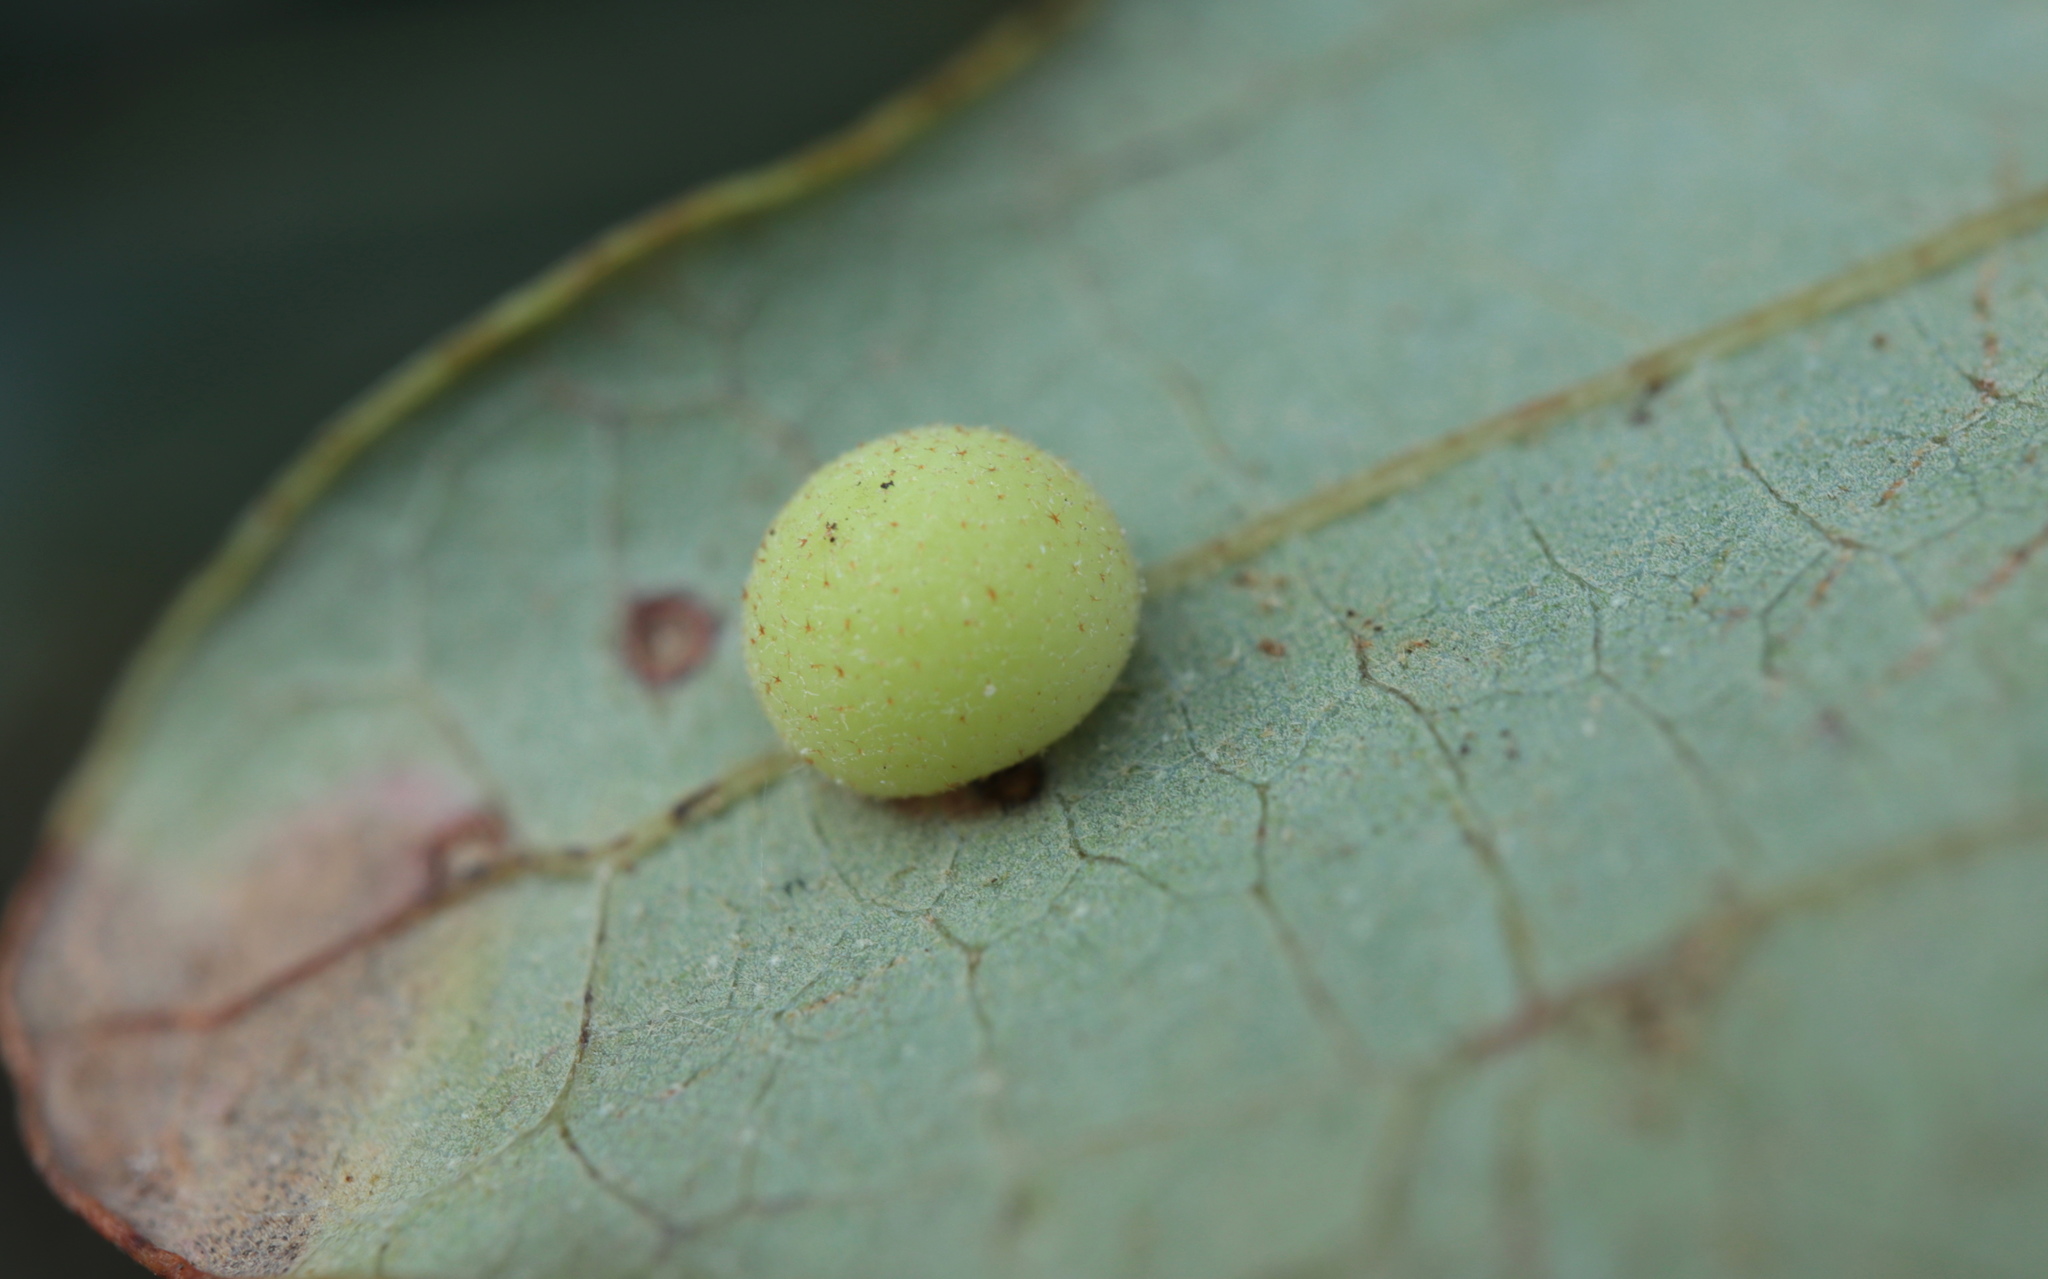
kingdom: Animalia
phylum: Arthropoda
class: Insecta
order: Hymenoptera
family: Cynipidae
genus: Atrusca
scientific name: Atrusca
